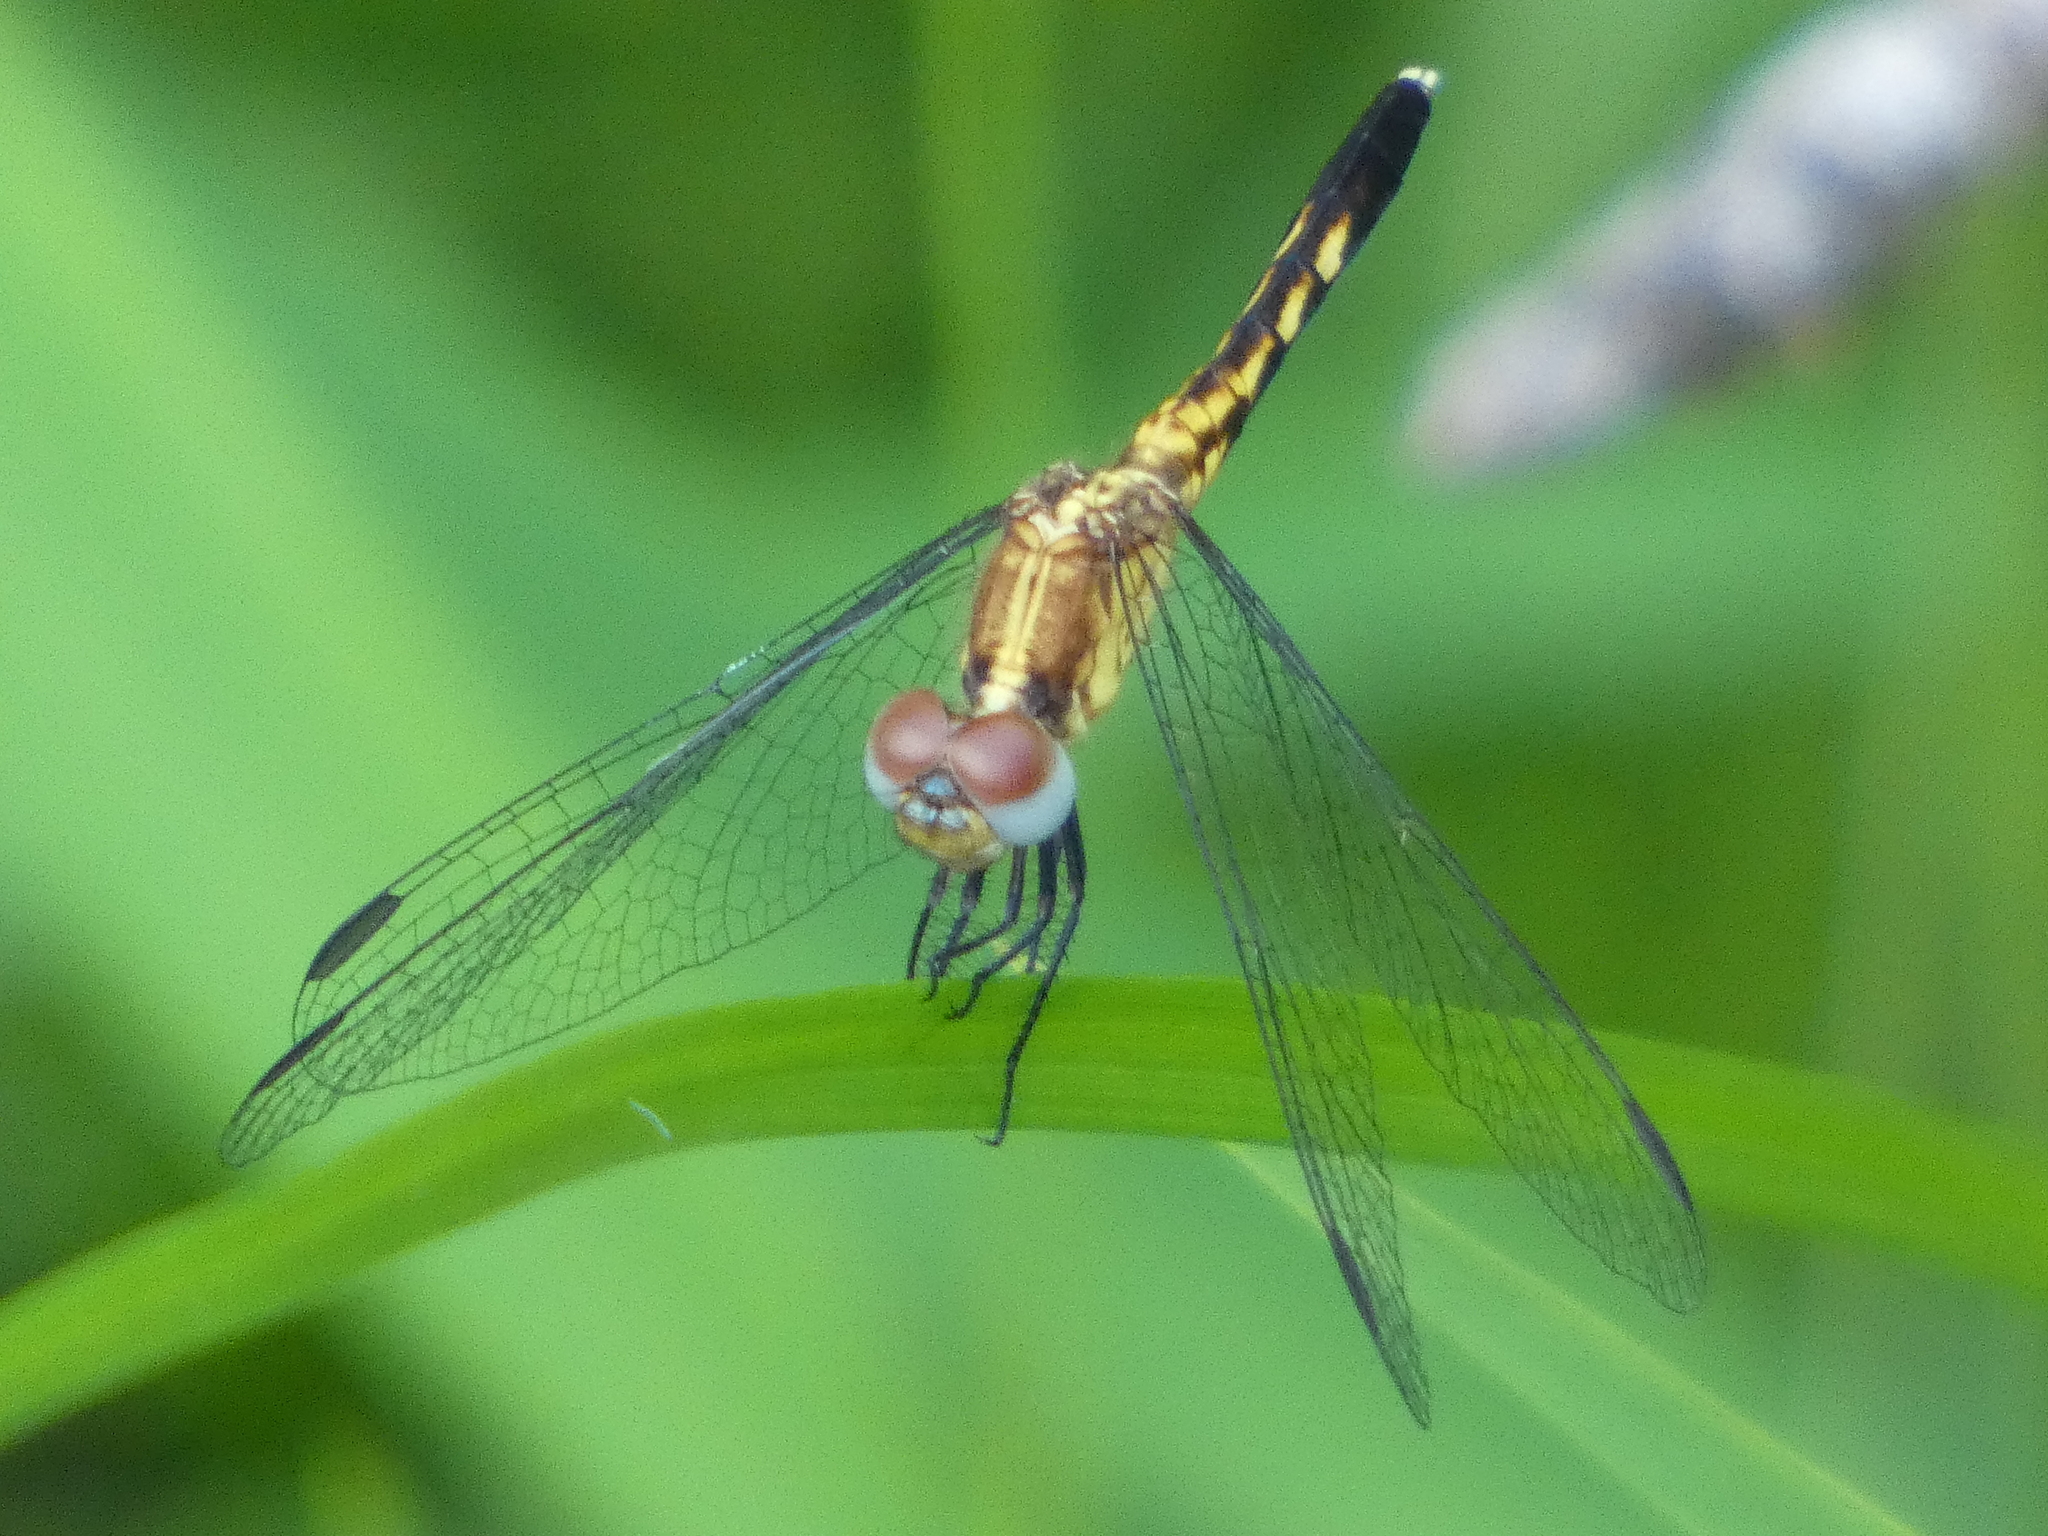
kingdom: Animalia
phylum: Arthropoda
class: Insecta
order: Odonata
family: Libellulidae
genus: Erythrodiplax
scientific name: Erythrodiplax minuscula
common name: Little blue dragonlet
